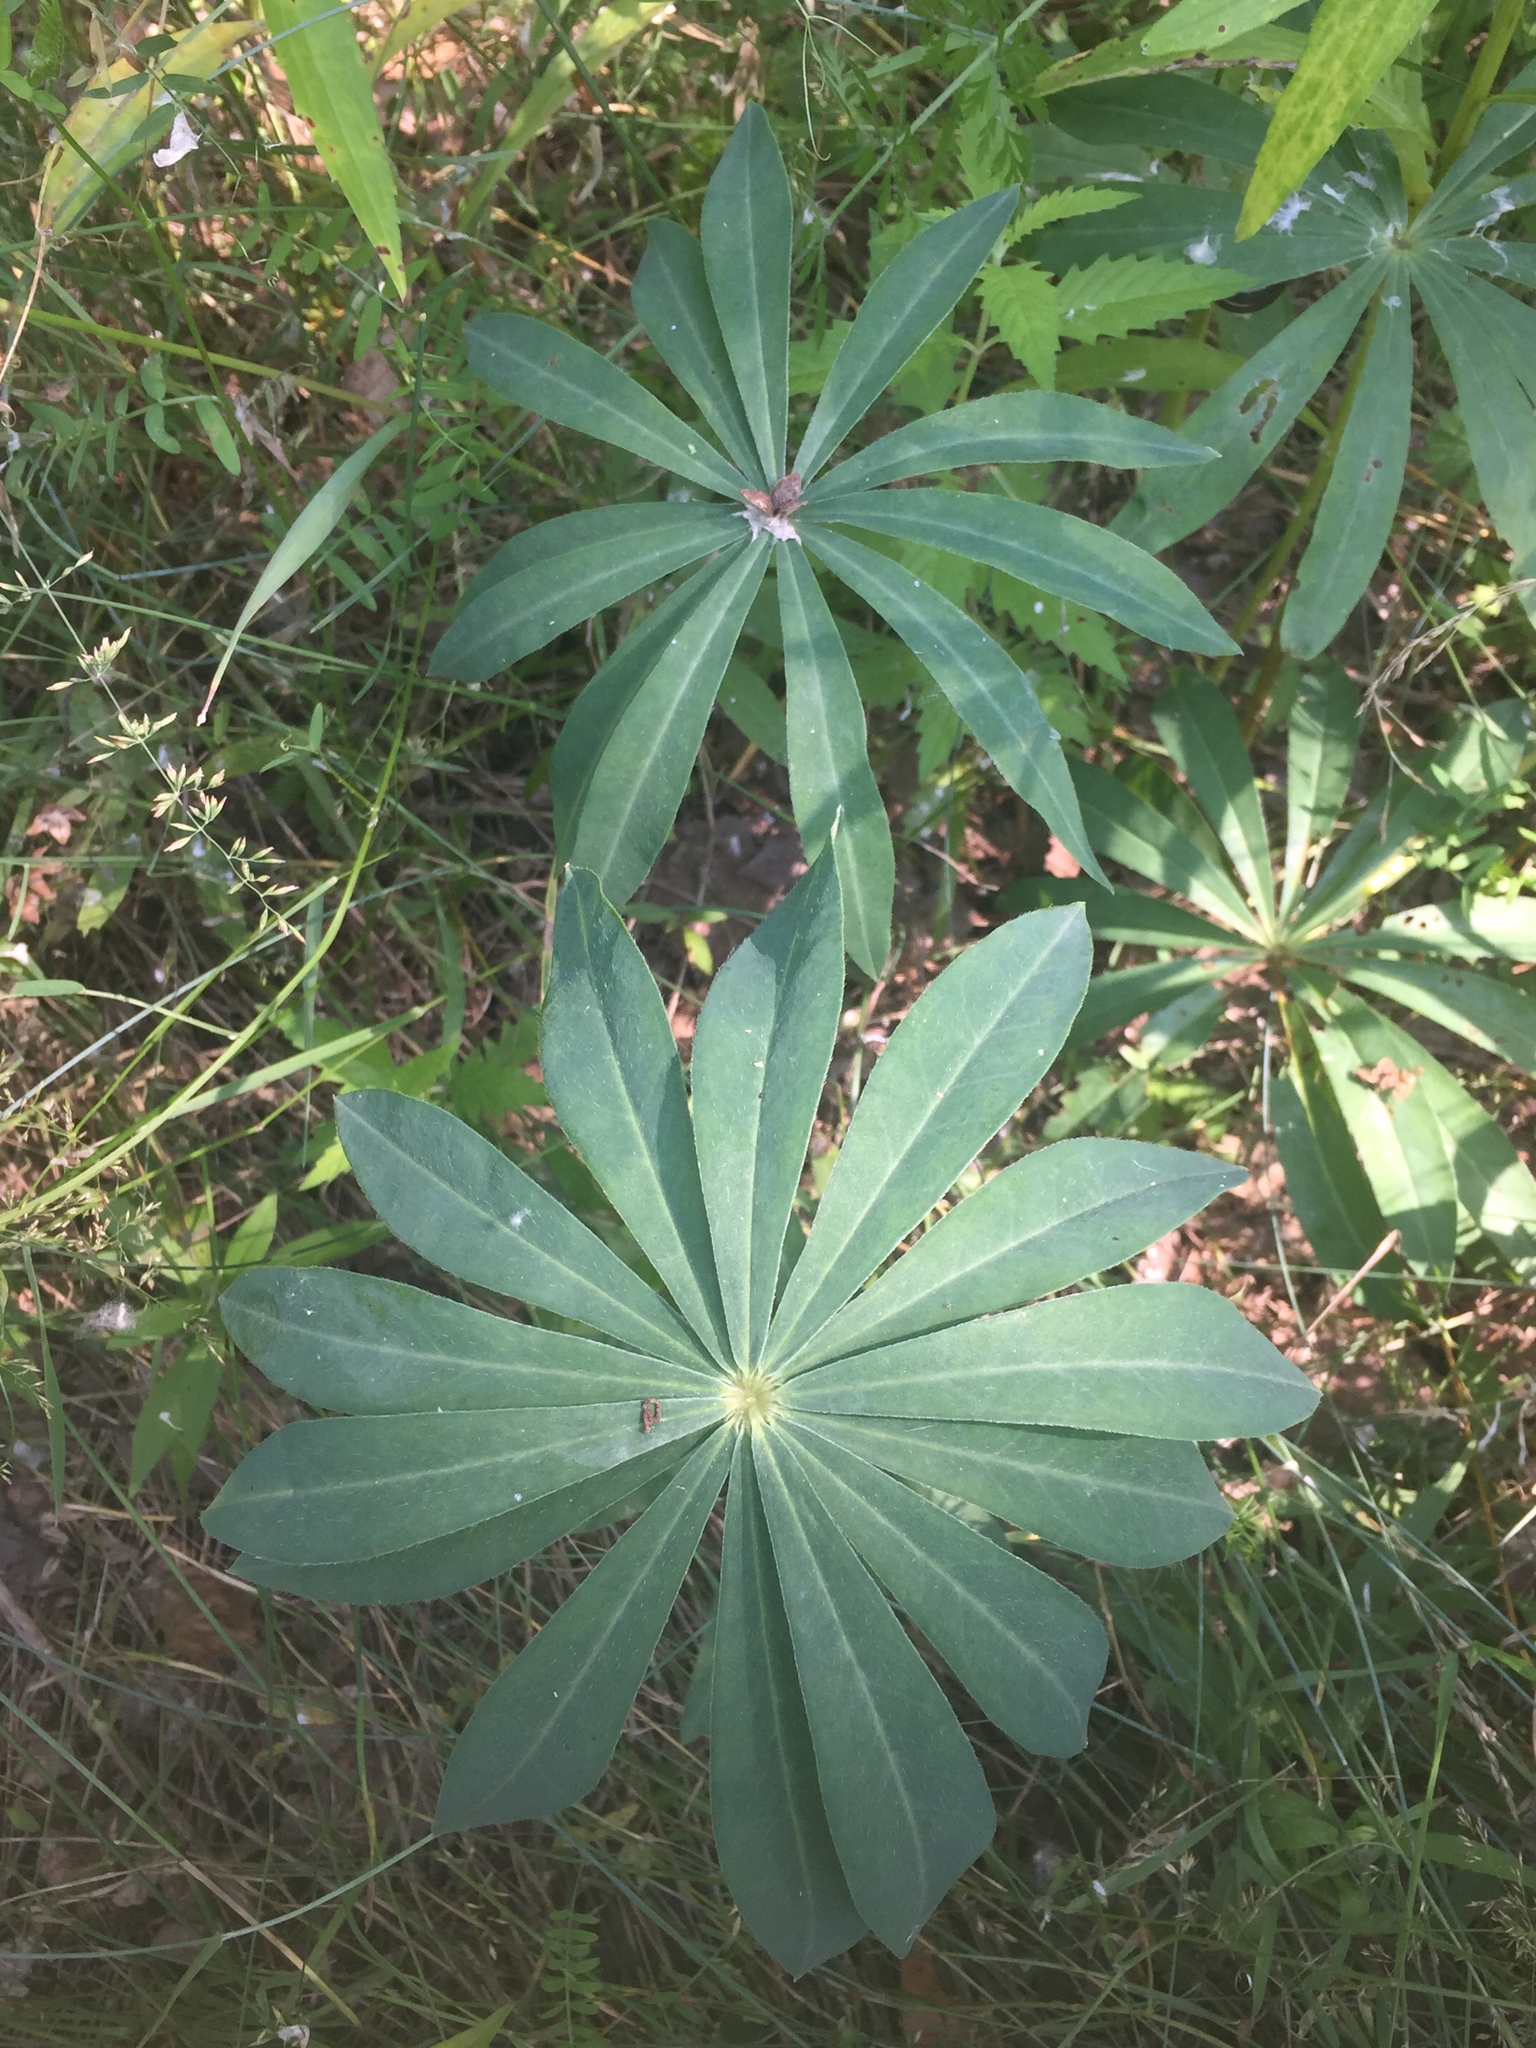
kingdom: Plantae
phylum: Tracheophyta
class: Magnoliopsida
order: Fabales
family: Fabaceae
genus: Lupinus
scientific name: Lupinus polyphyllus
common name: Garden lupin
